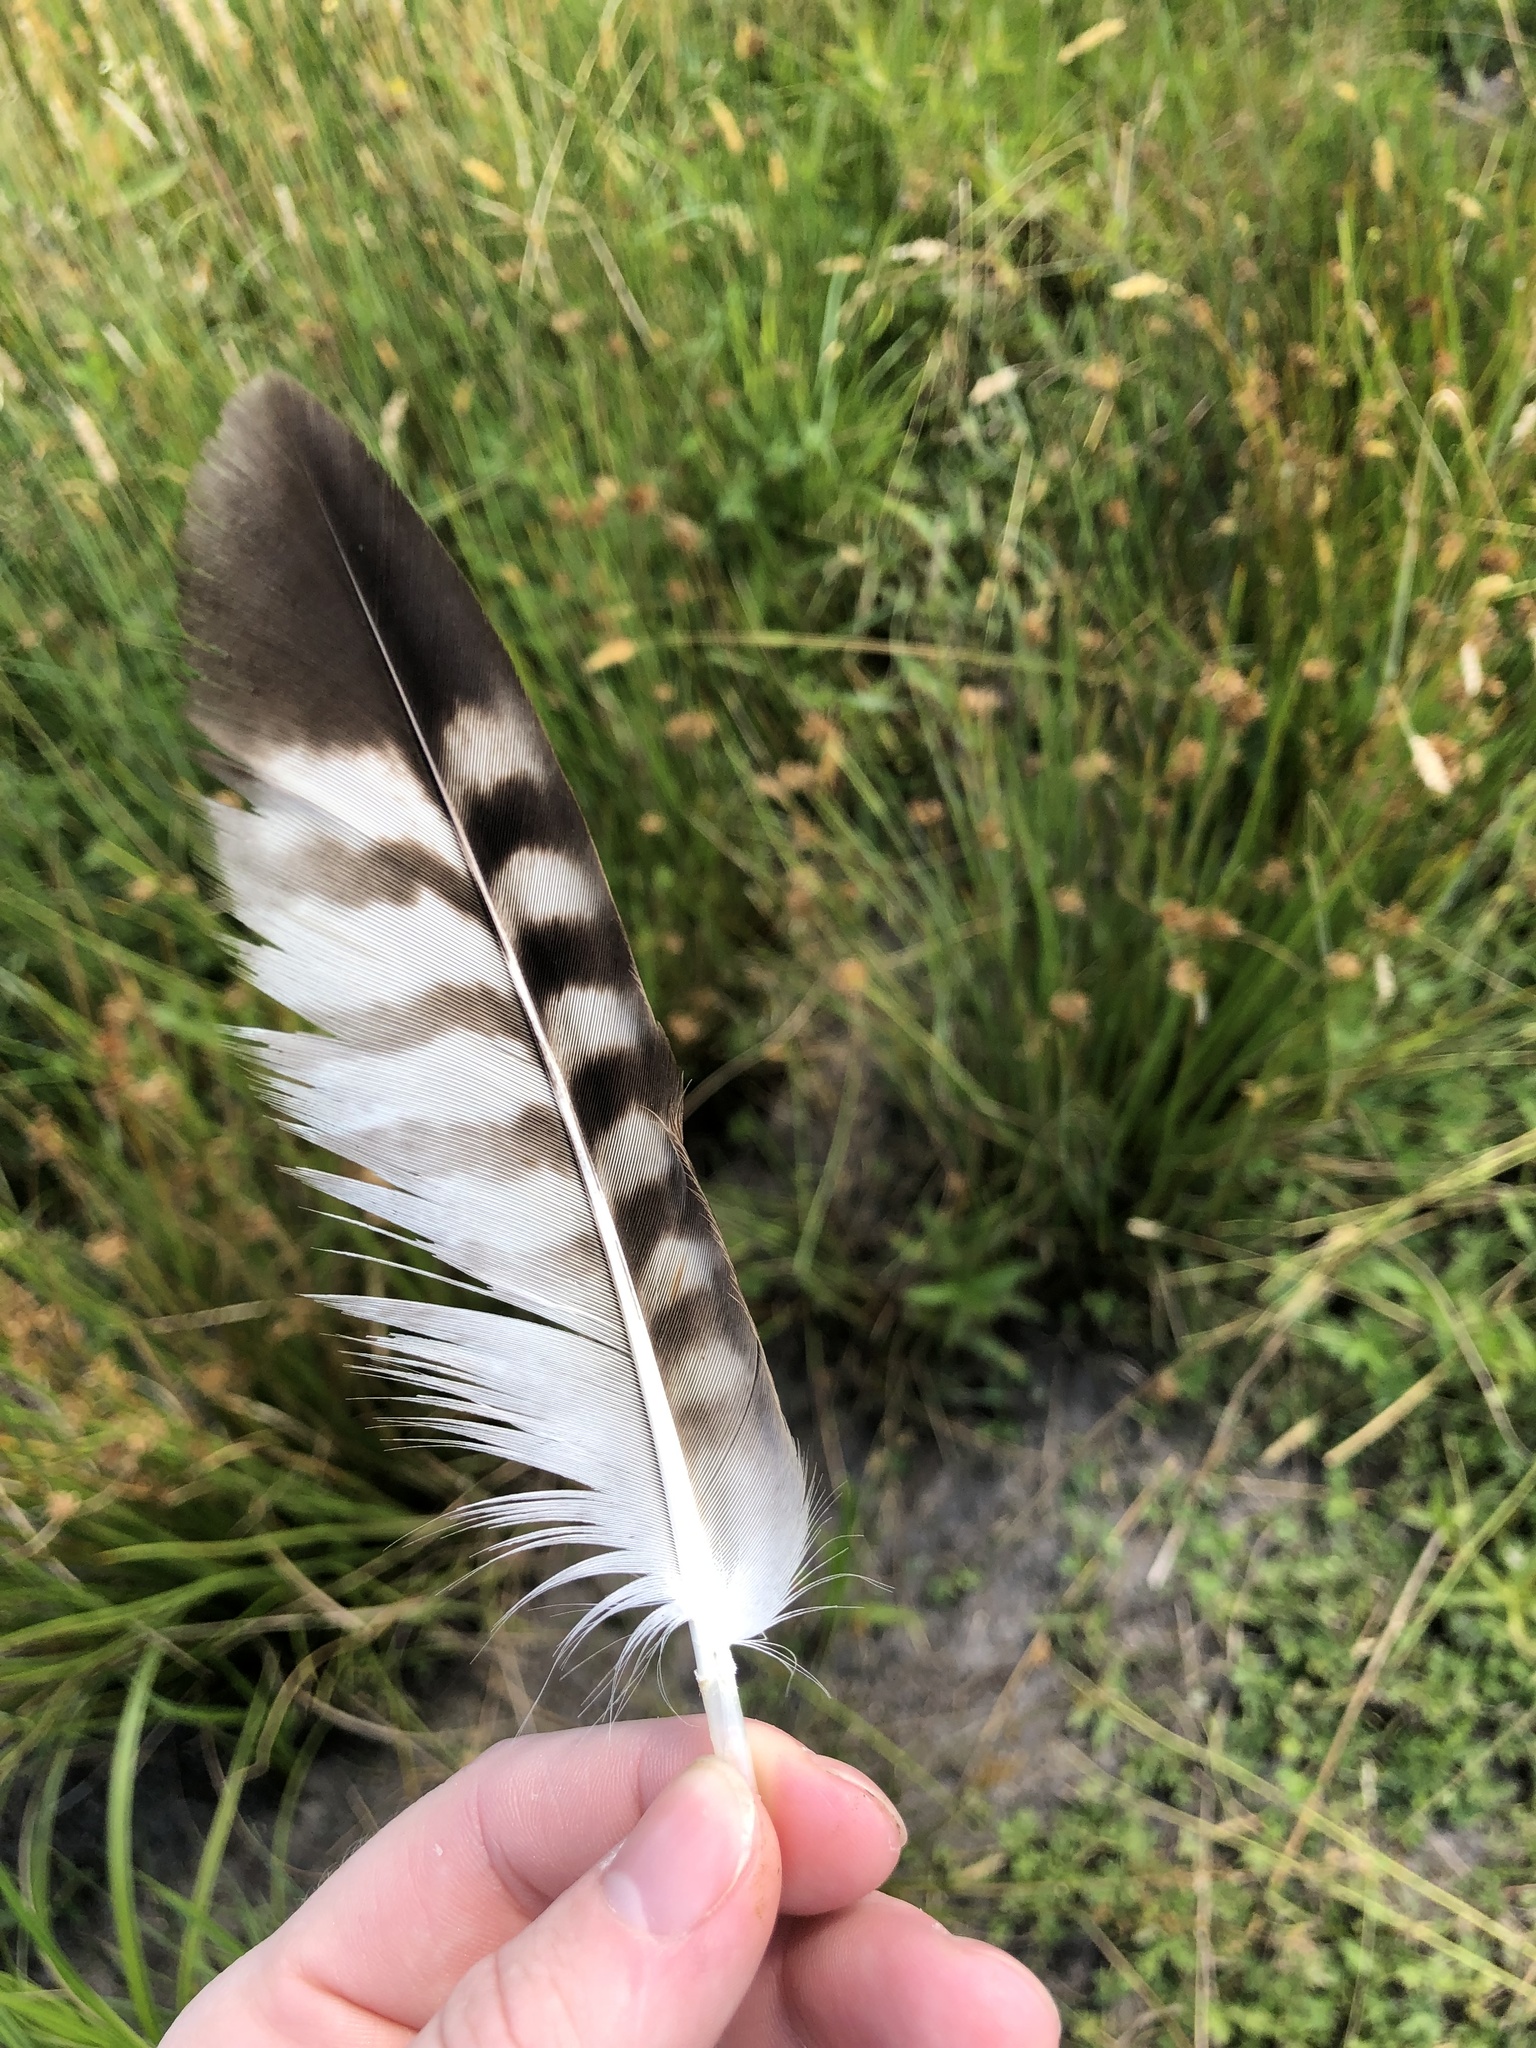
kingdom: Animalia
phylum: Chordata
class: Aves
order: Accipitriformes
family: Accipitridae
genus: Buteo
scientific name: Buteo jamaicensis
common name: Red-tailed hawk
